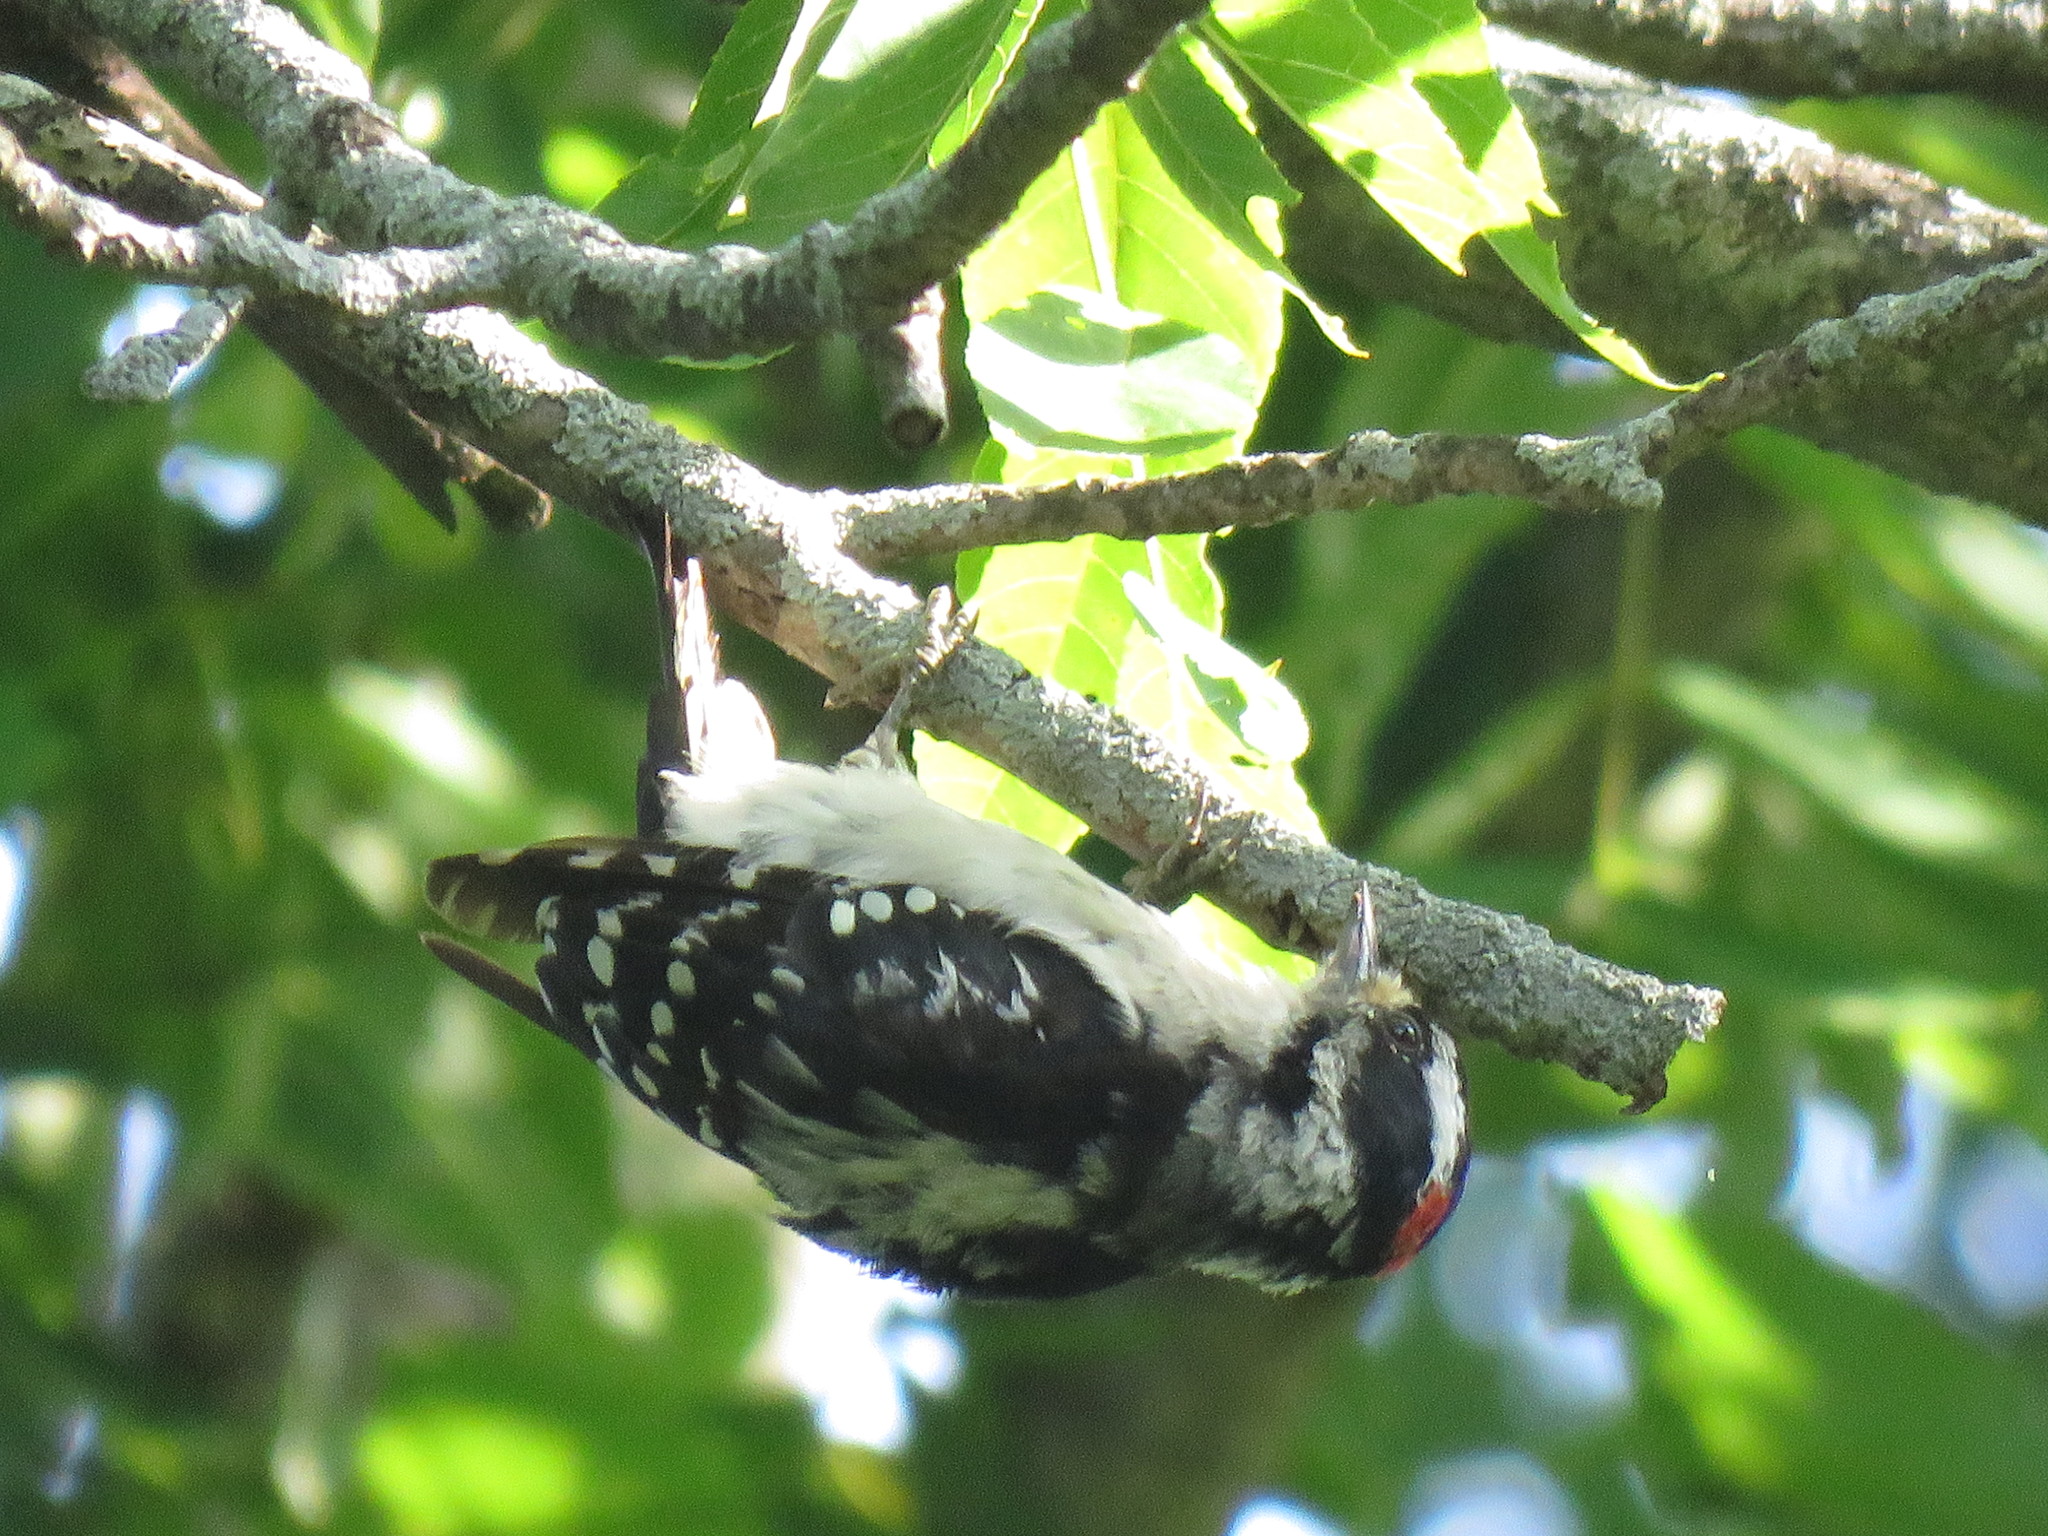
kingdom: Animalia
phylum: Chordata
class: Aves
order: Piciformes
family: Picidae
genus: Dryobates
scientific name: Dryobates pubescens
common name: Downy woodpecker
